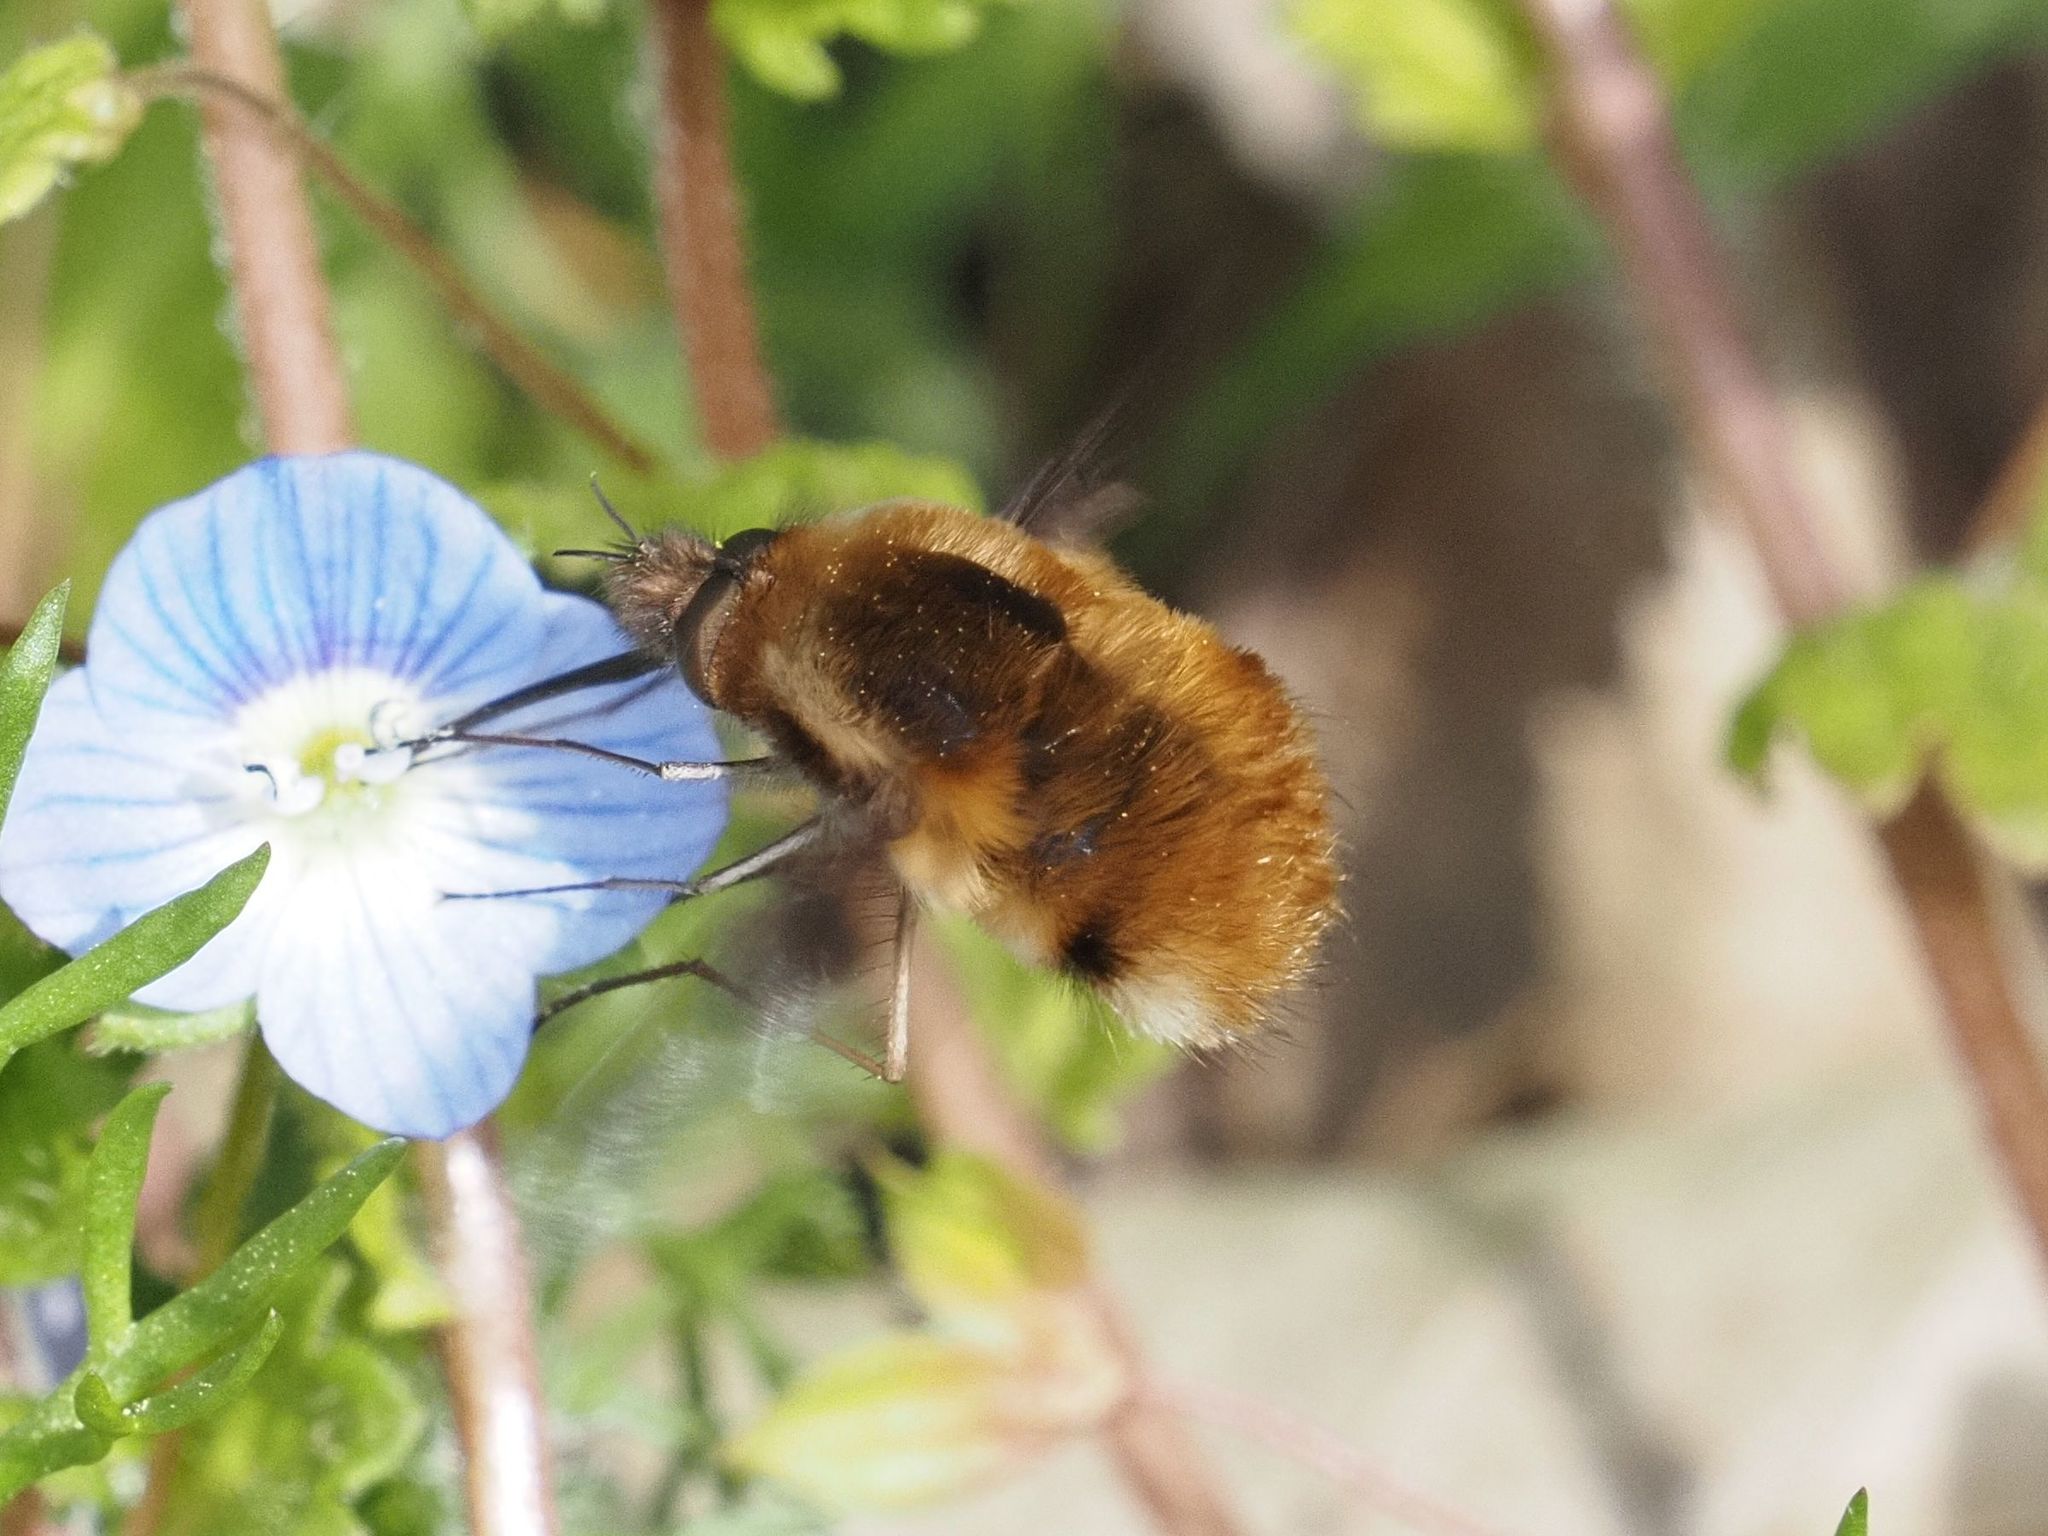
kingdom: Animalia
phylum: Arthropoda
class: Insecta
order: Diptera
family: Bombyliidae
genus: Bombylius
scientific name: Bombylius major
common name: Bee fly
